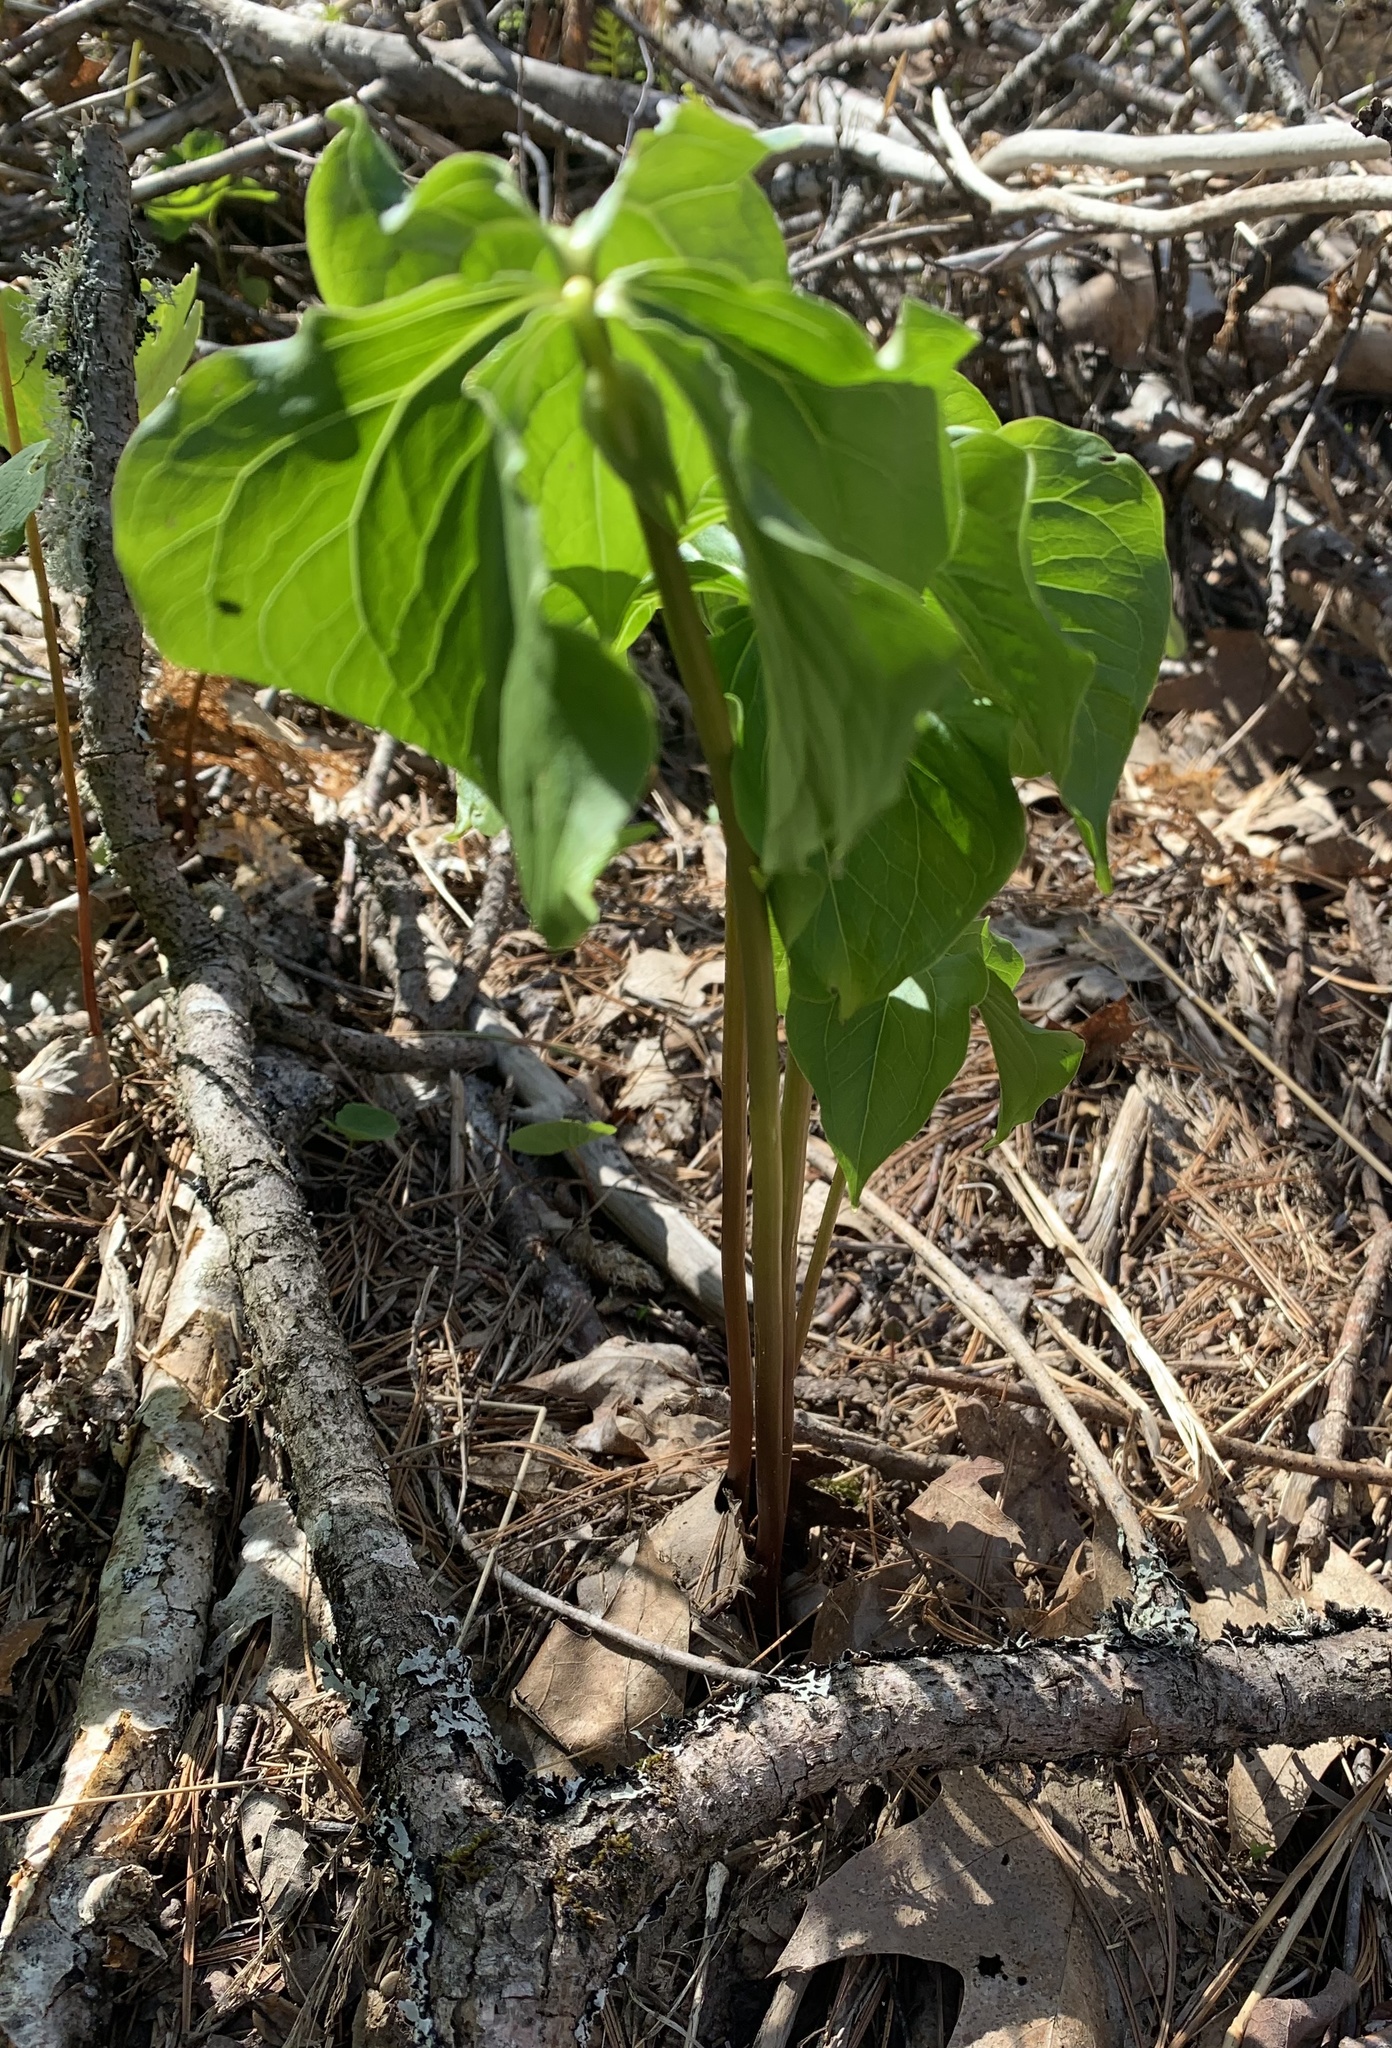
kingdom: Plantae
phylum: Tracheophyta
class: Liliopsida
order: Liliales
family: Melanthiaceae
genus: Trillium
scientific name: Trillium cernuum
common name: Nodding trillium
